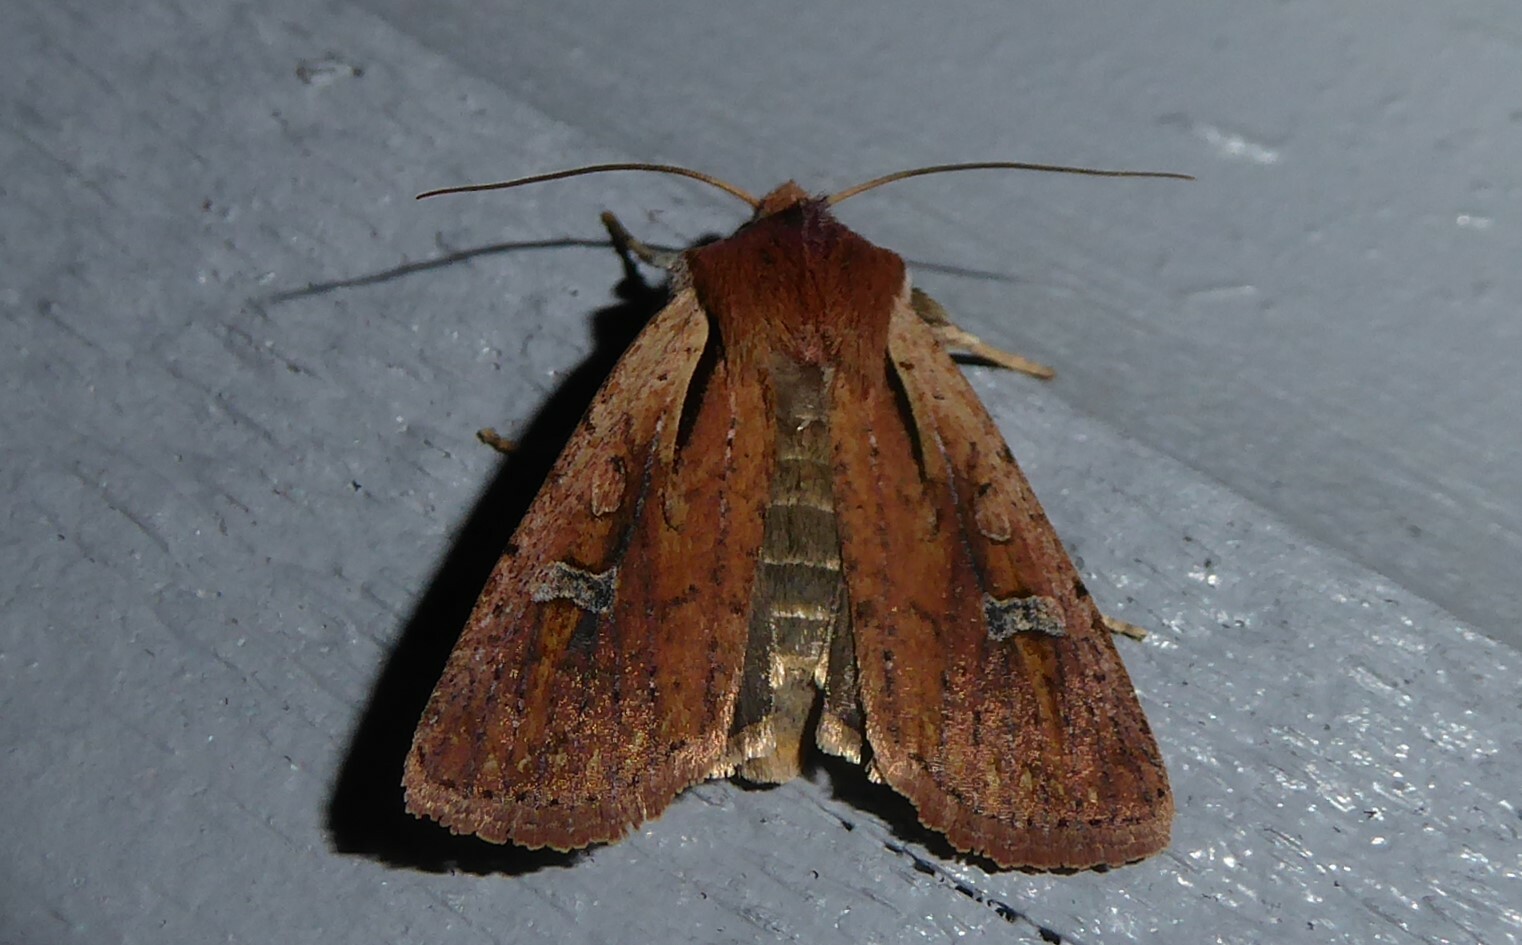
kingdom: Animalia
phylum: Arthropoda
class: Insecta
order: Lepidoptera
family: Noctuidae
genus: Ichneutica
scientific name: Ichneutica atristriga
